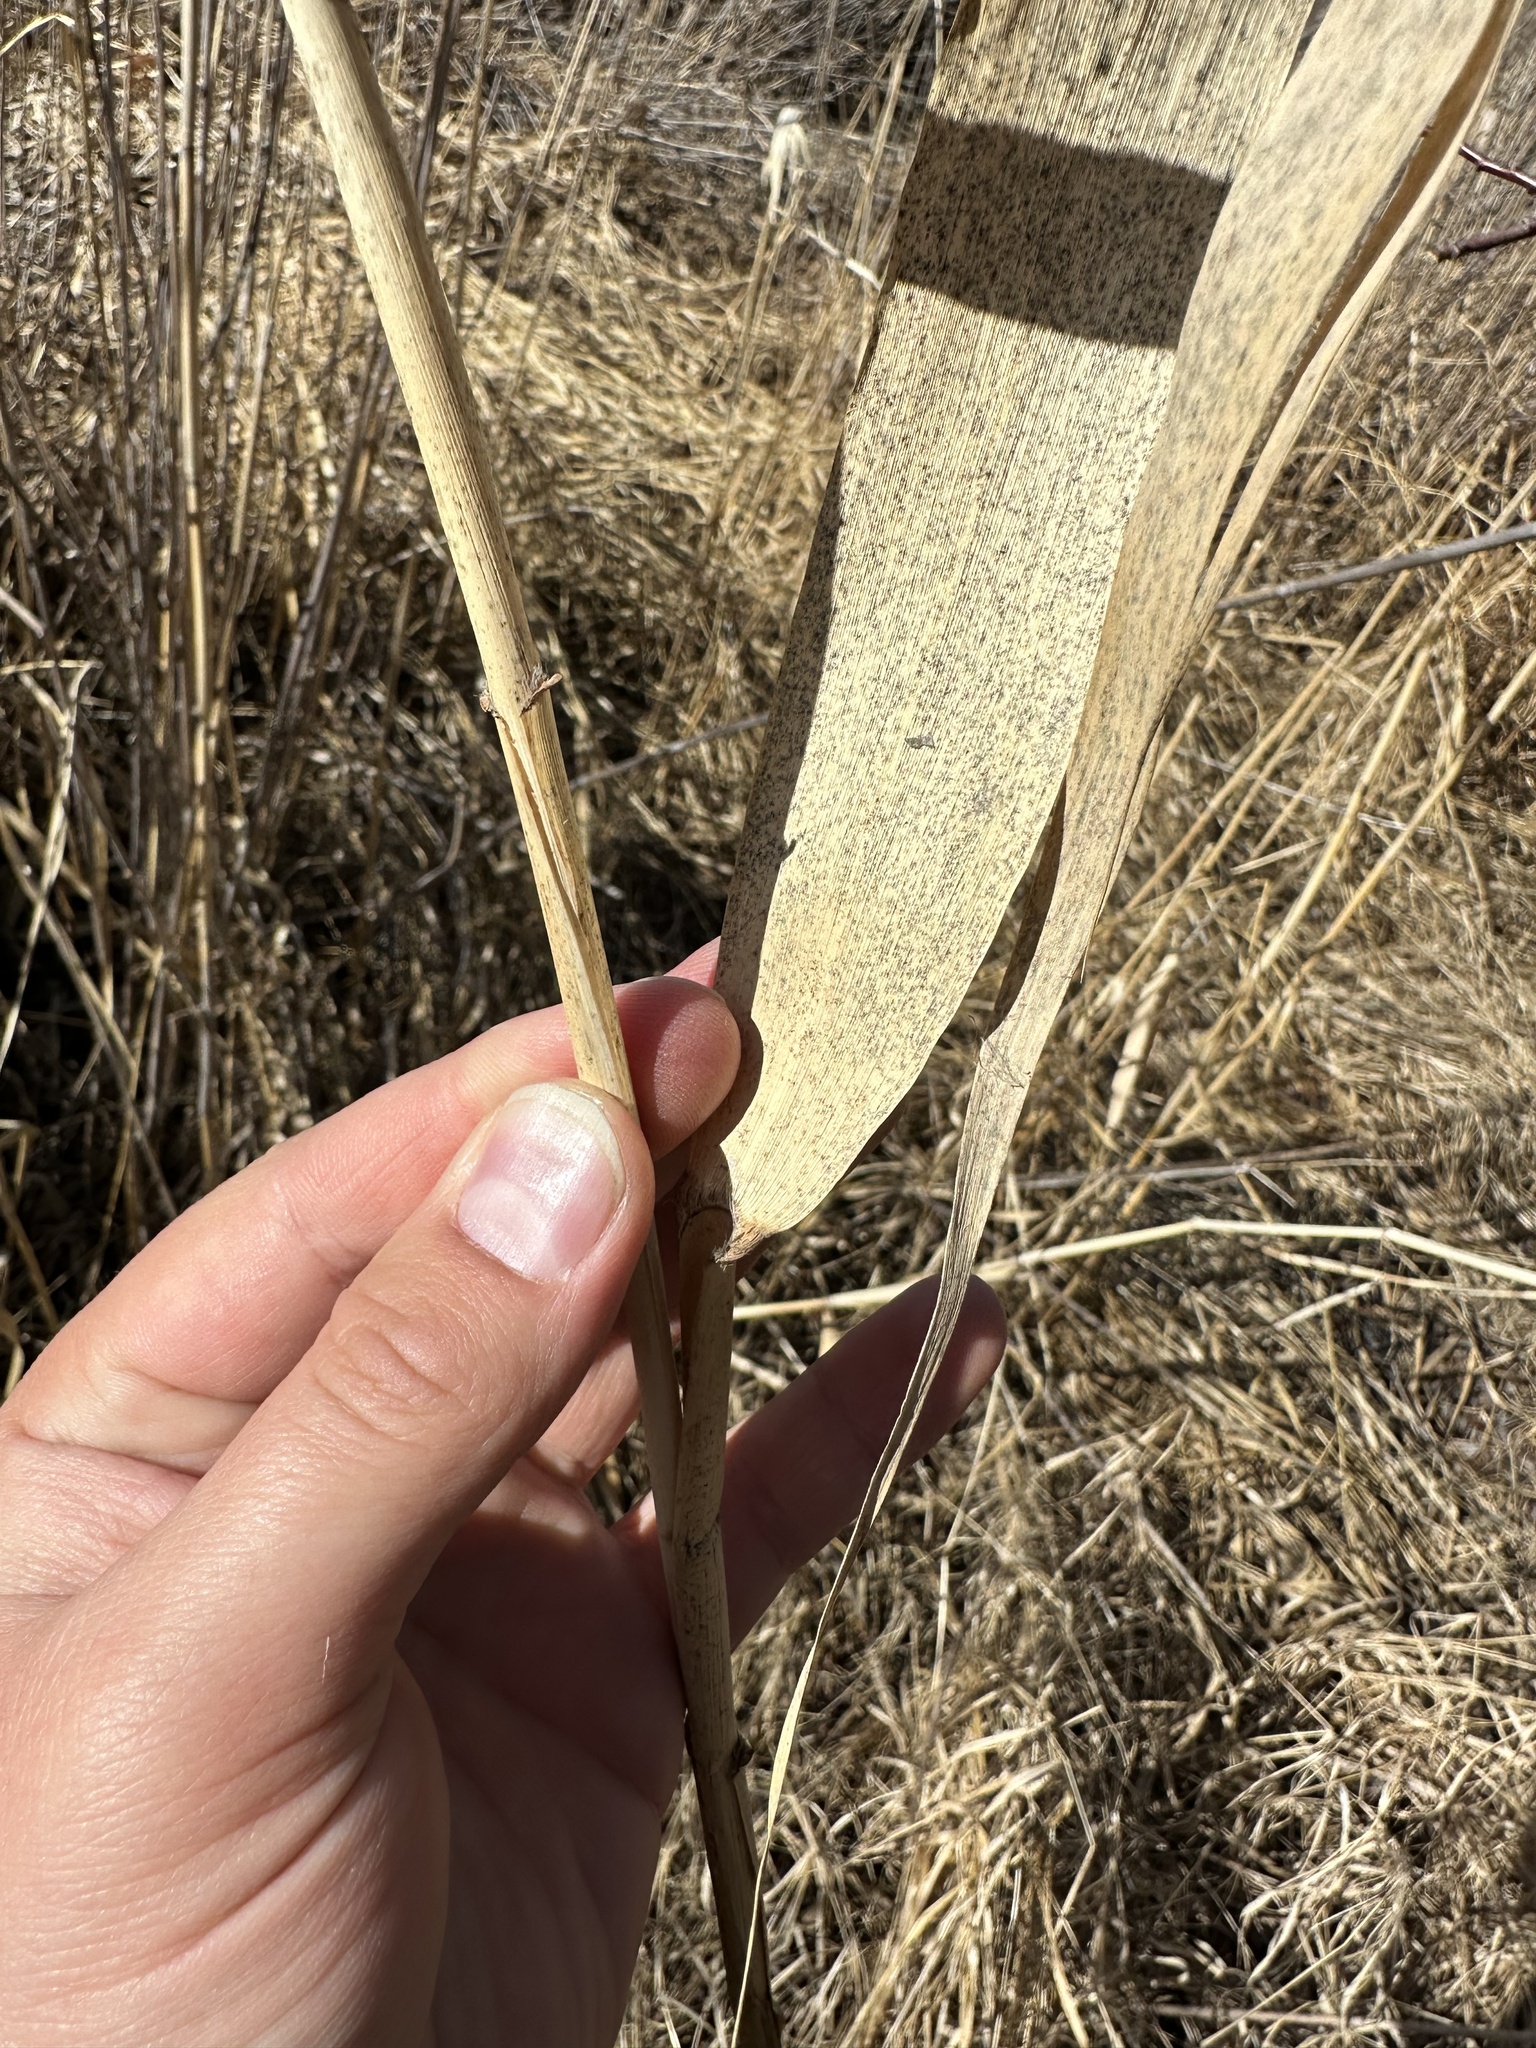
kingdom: Plantae
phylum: Tracheophyta
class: Liliopsida
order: Poales
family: Poaceae
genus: Phragmites
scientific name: Phragmites australis
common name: Common reed
